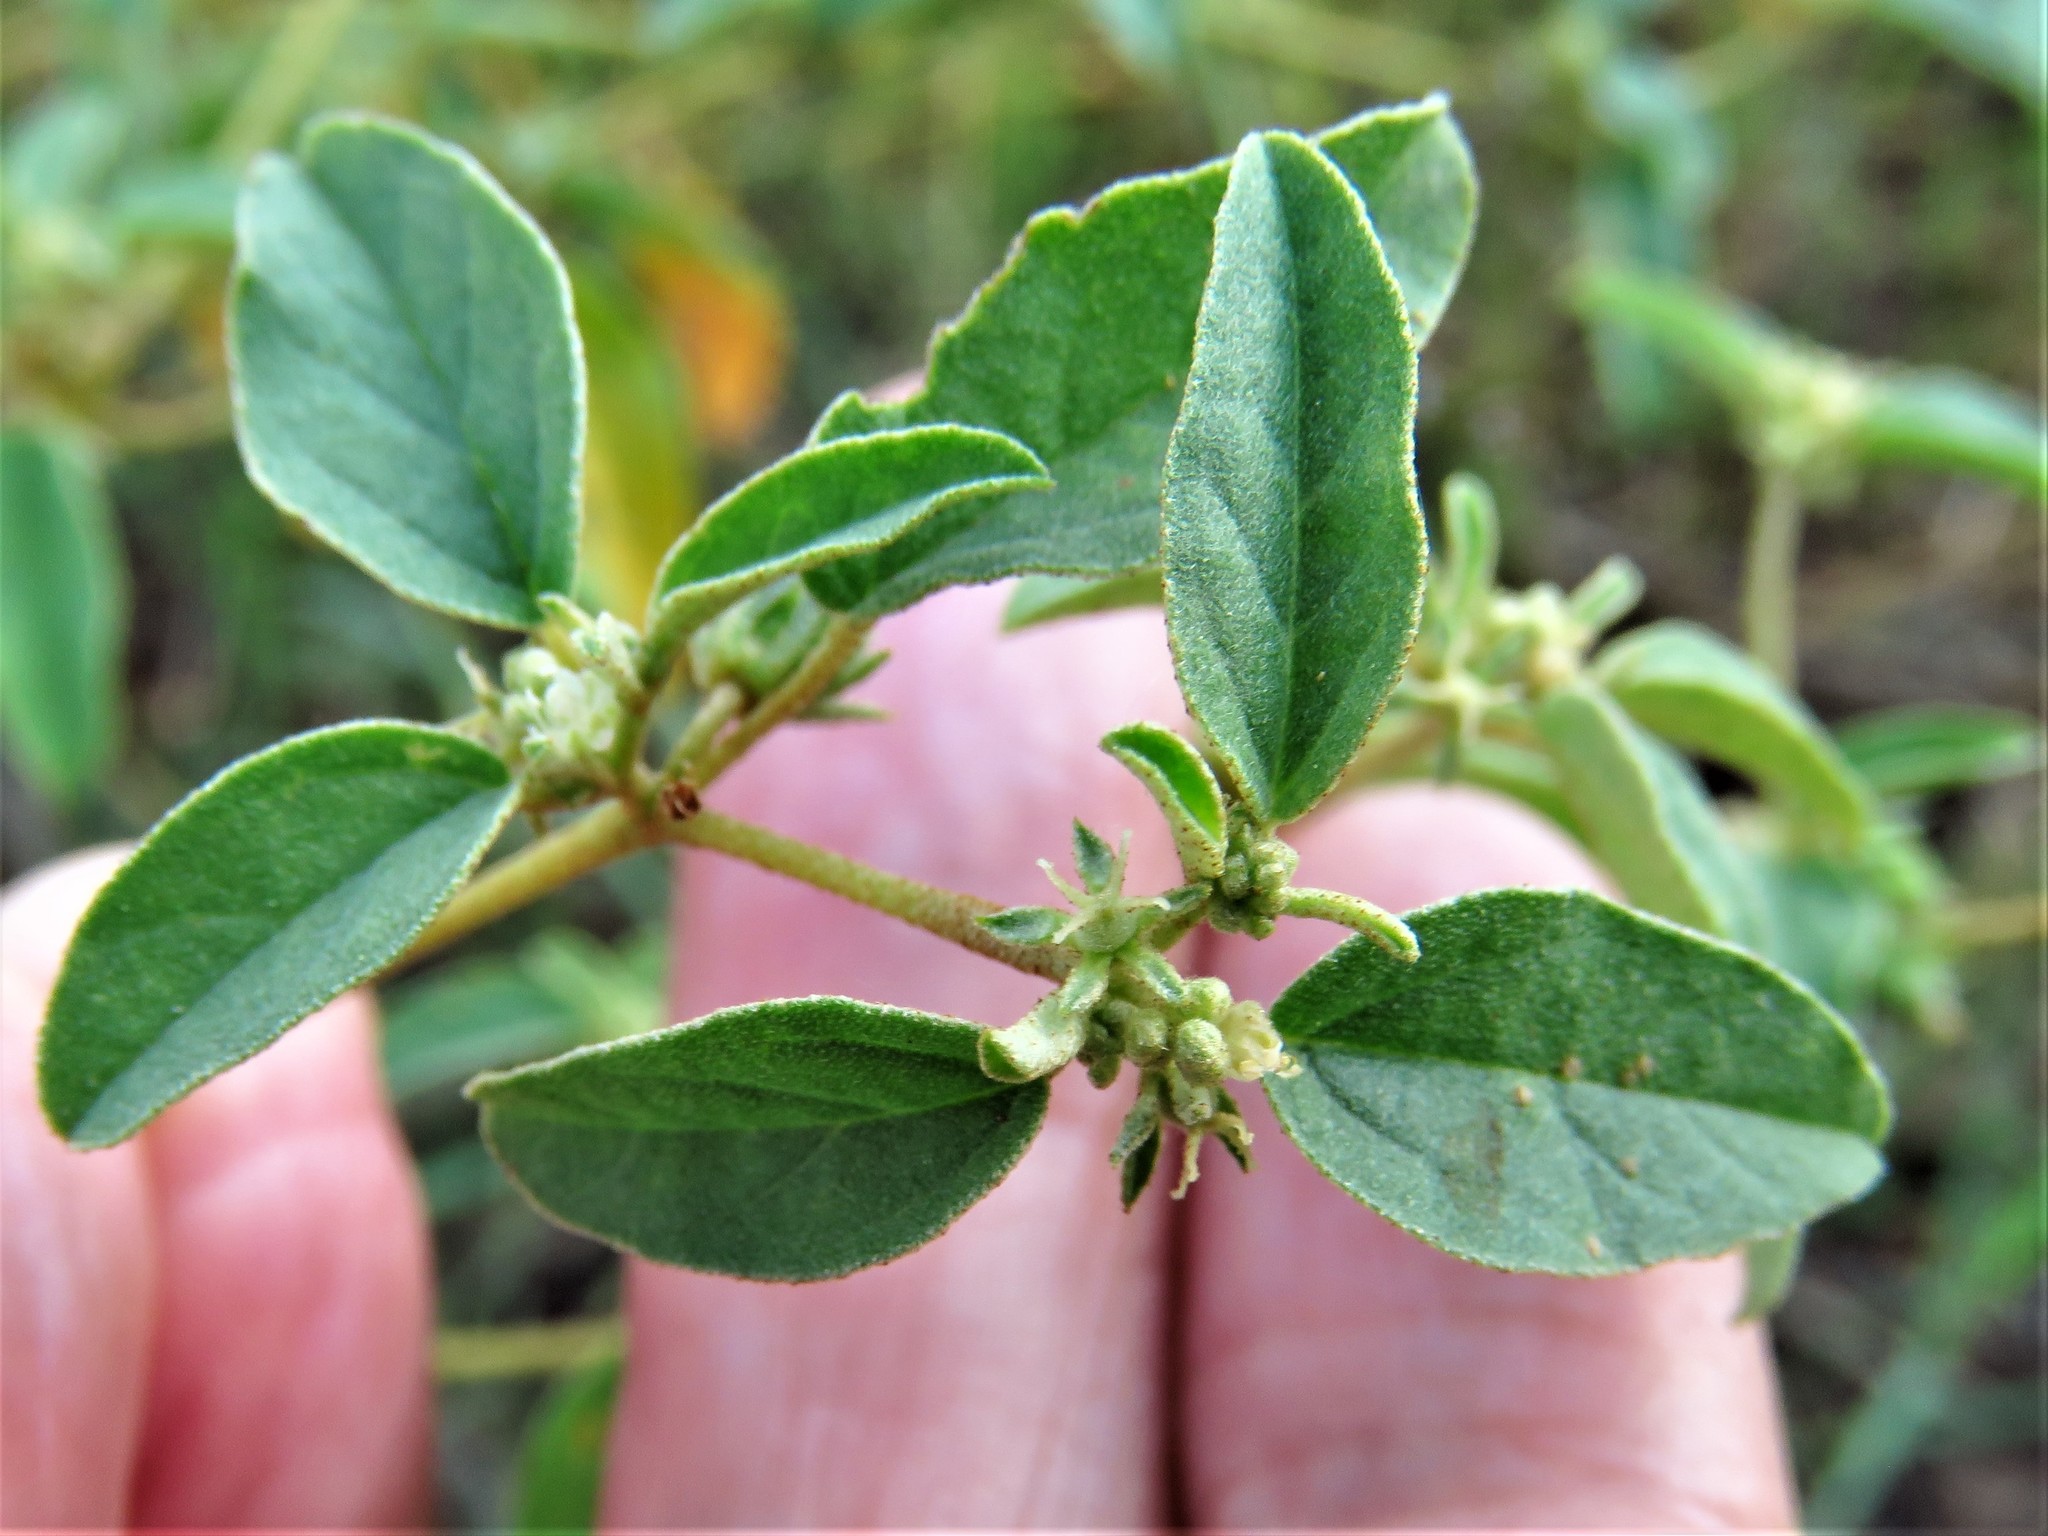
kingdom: Plantae
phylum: Tracheophyta
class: Magnoliopsida
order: Malpighiales
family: Euphorbiaceae
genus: Croton
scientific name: Croton monanthogynus
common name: One-seed croton
